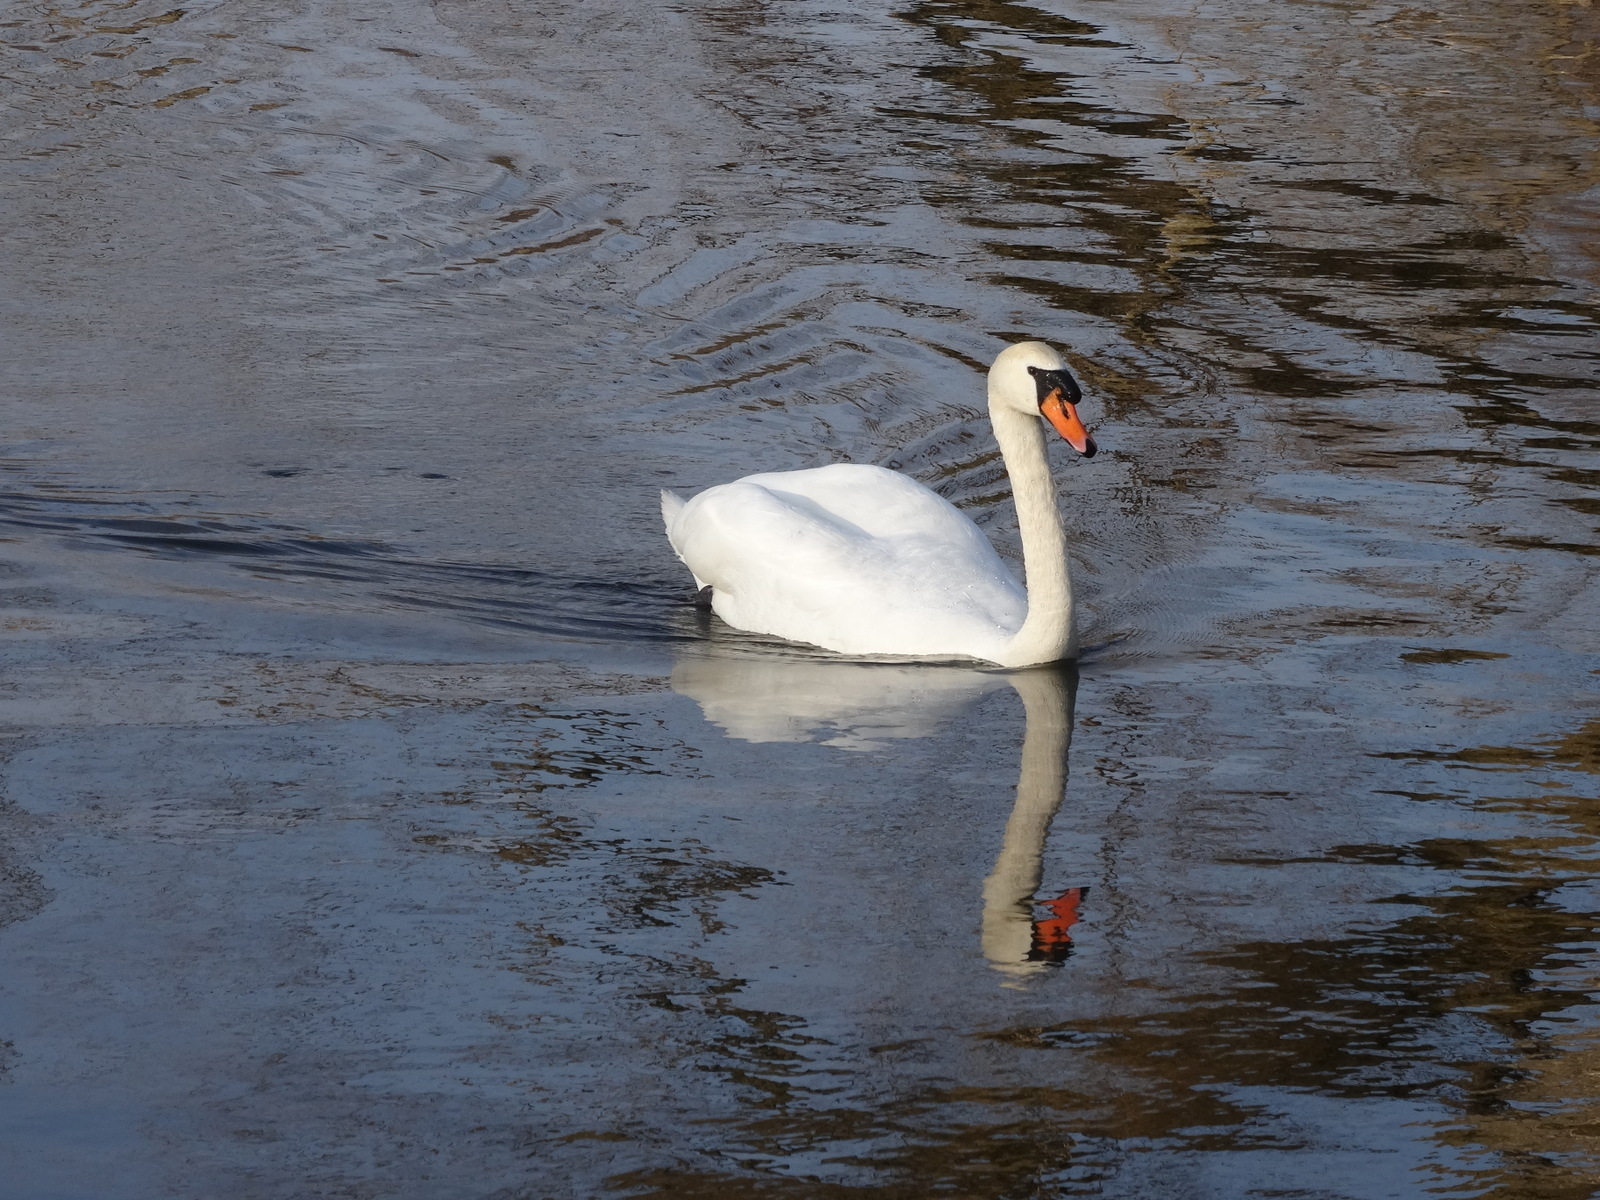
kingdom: Animalia
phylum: Chordata
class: Aves
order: Anseriformes
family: Anatidae
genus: Cygnus
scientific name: Cygnus olor
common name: Mute swan
